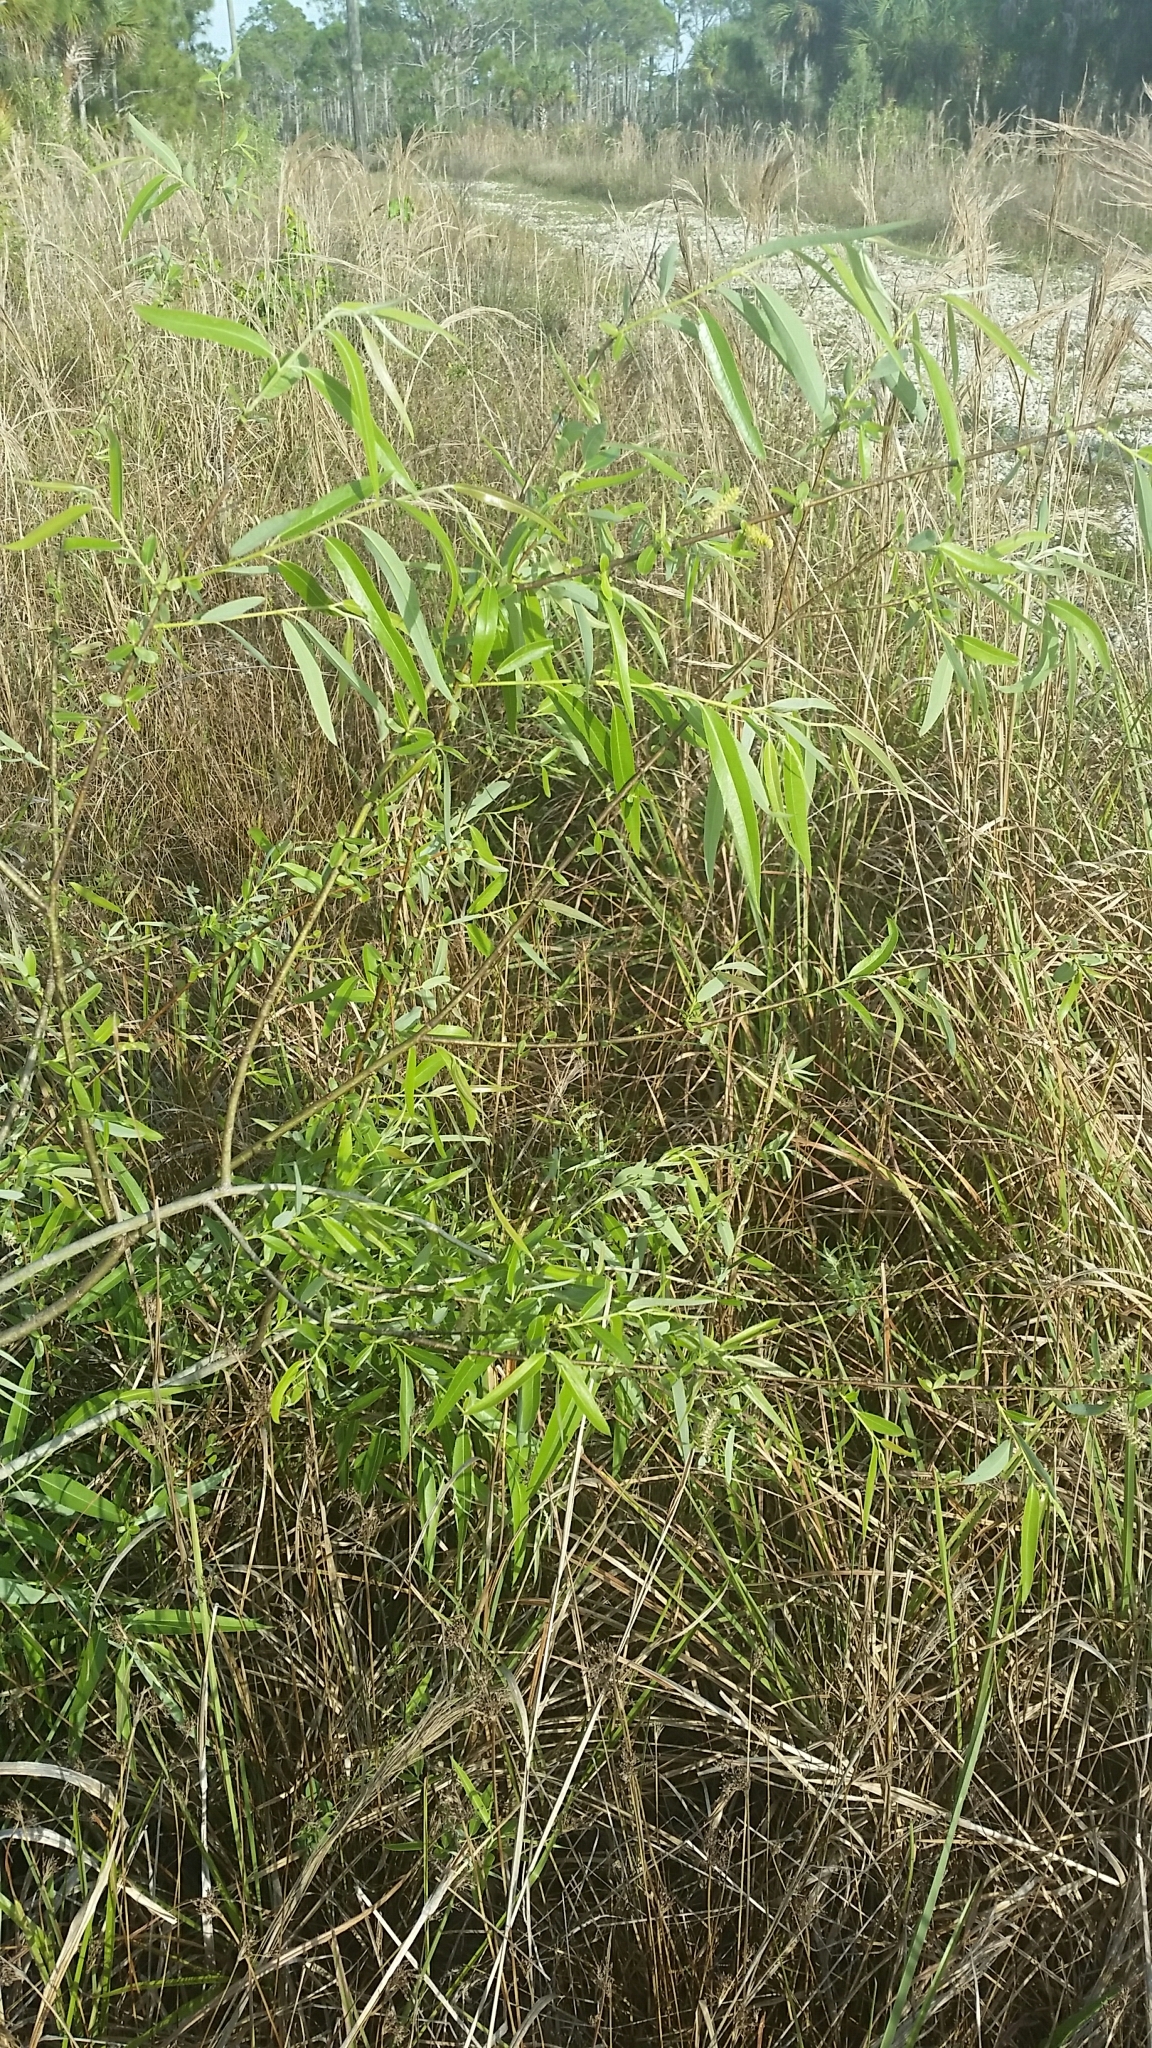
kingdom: Plantae
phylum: Tracheophyta
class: Magnoliopsida
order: Malpighiales
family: Salicaceae
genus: Salix
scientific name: Salix caroliniana
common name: Carolina willow
